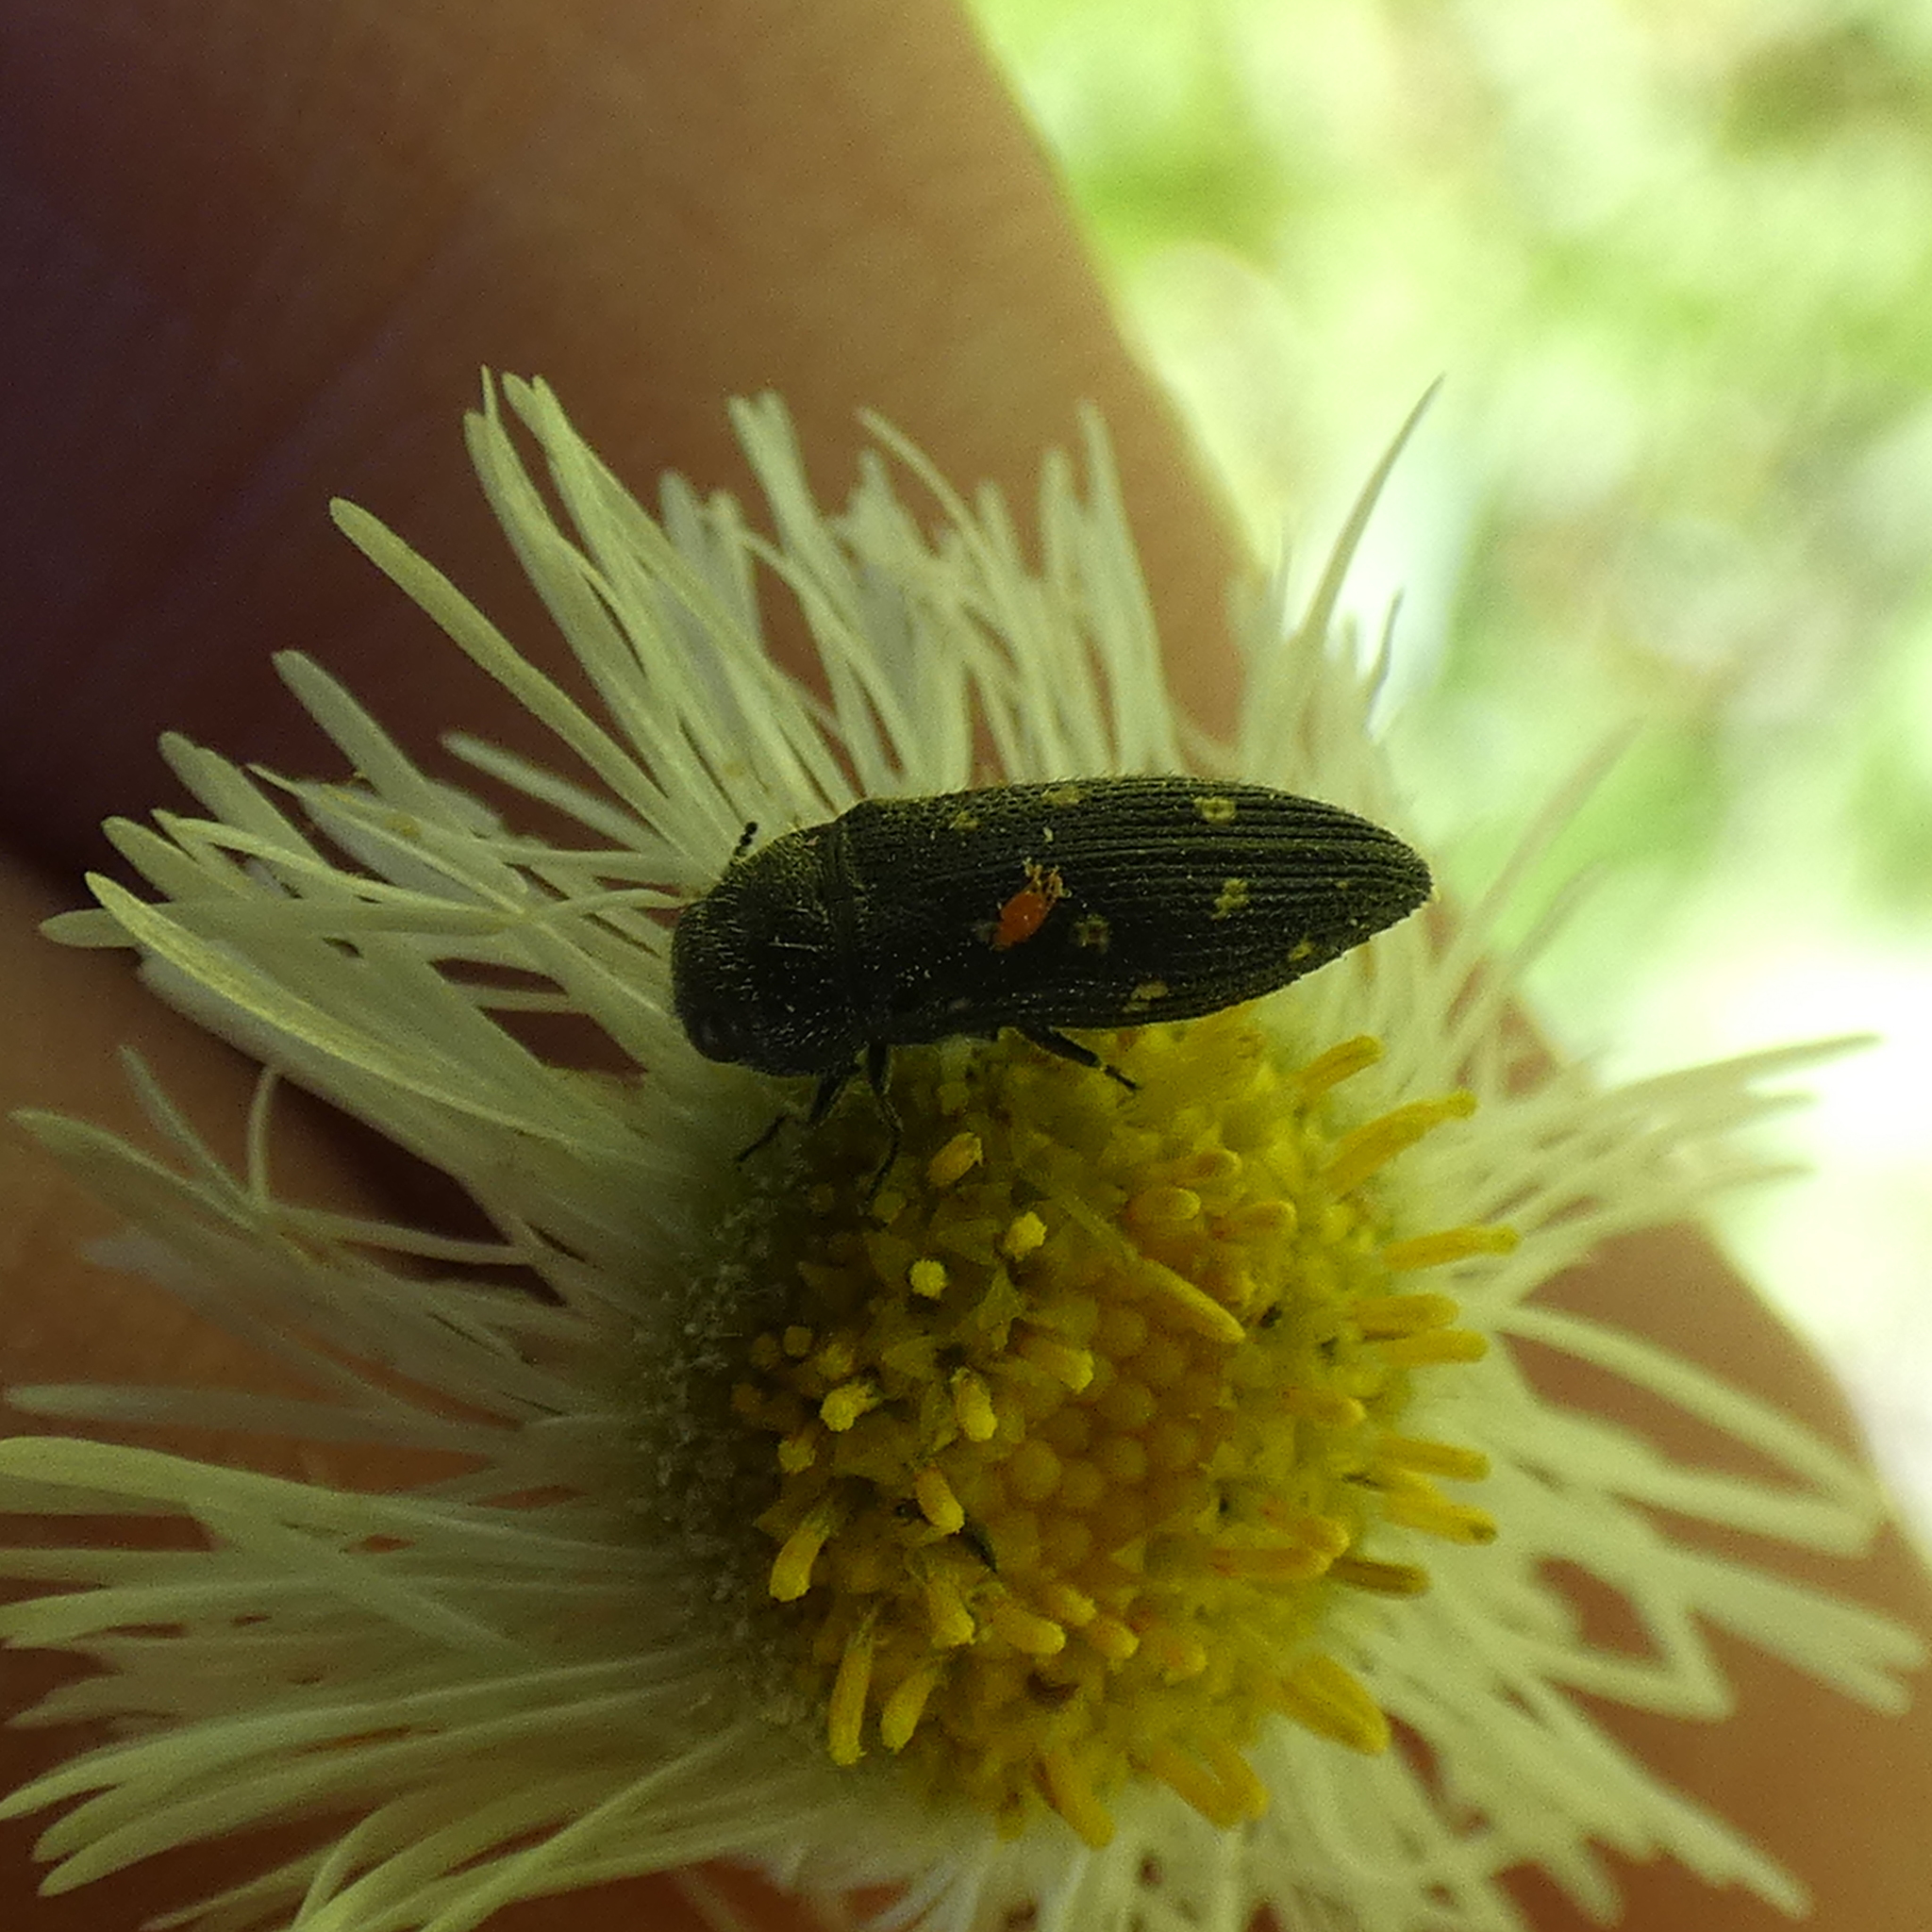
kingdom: Animalia
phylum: Arthropoda
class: Insecta
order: Coleoptera
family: Buprestidae
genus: Acmaeodera
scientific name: Acmaeodera tubulus
